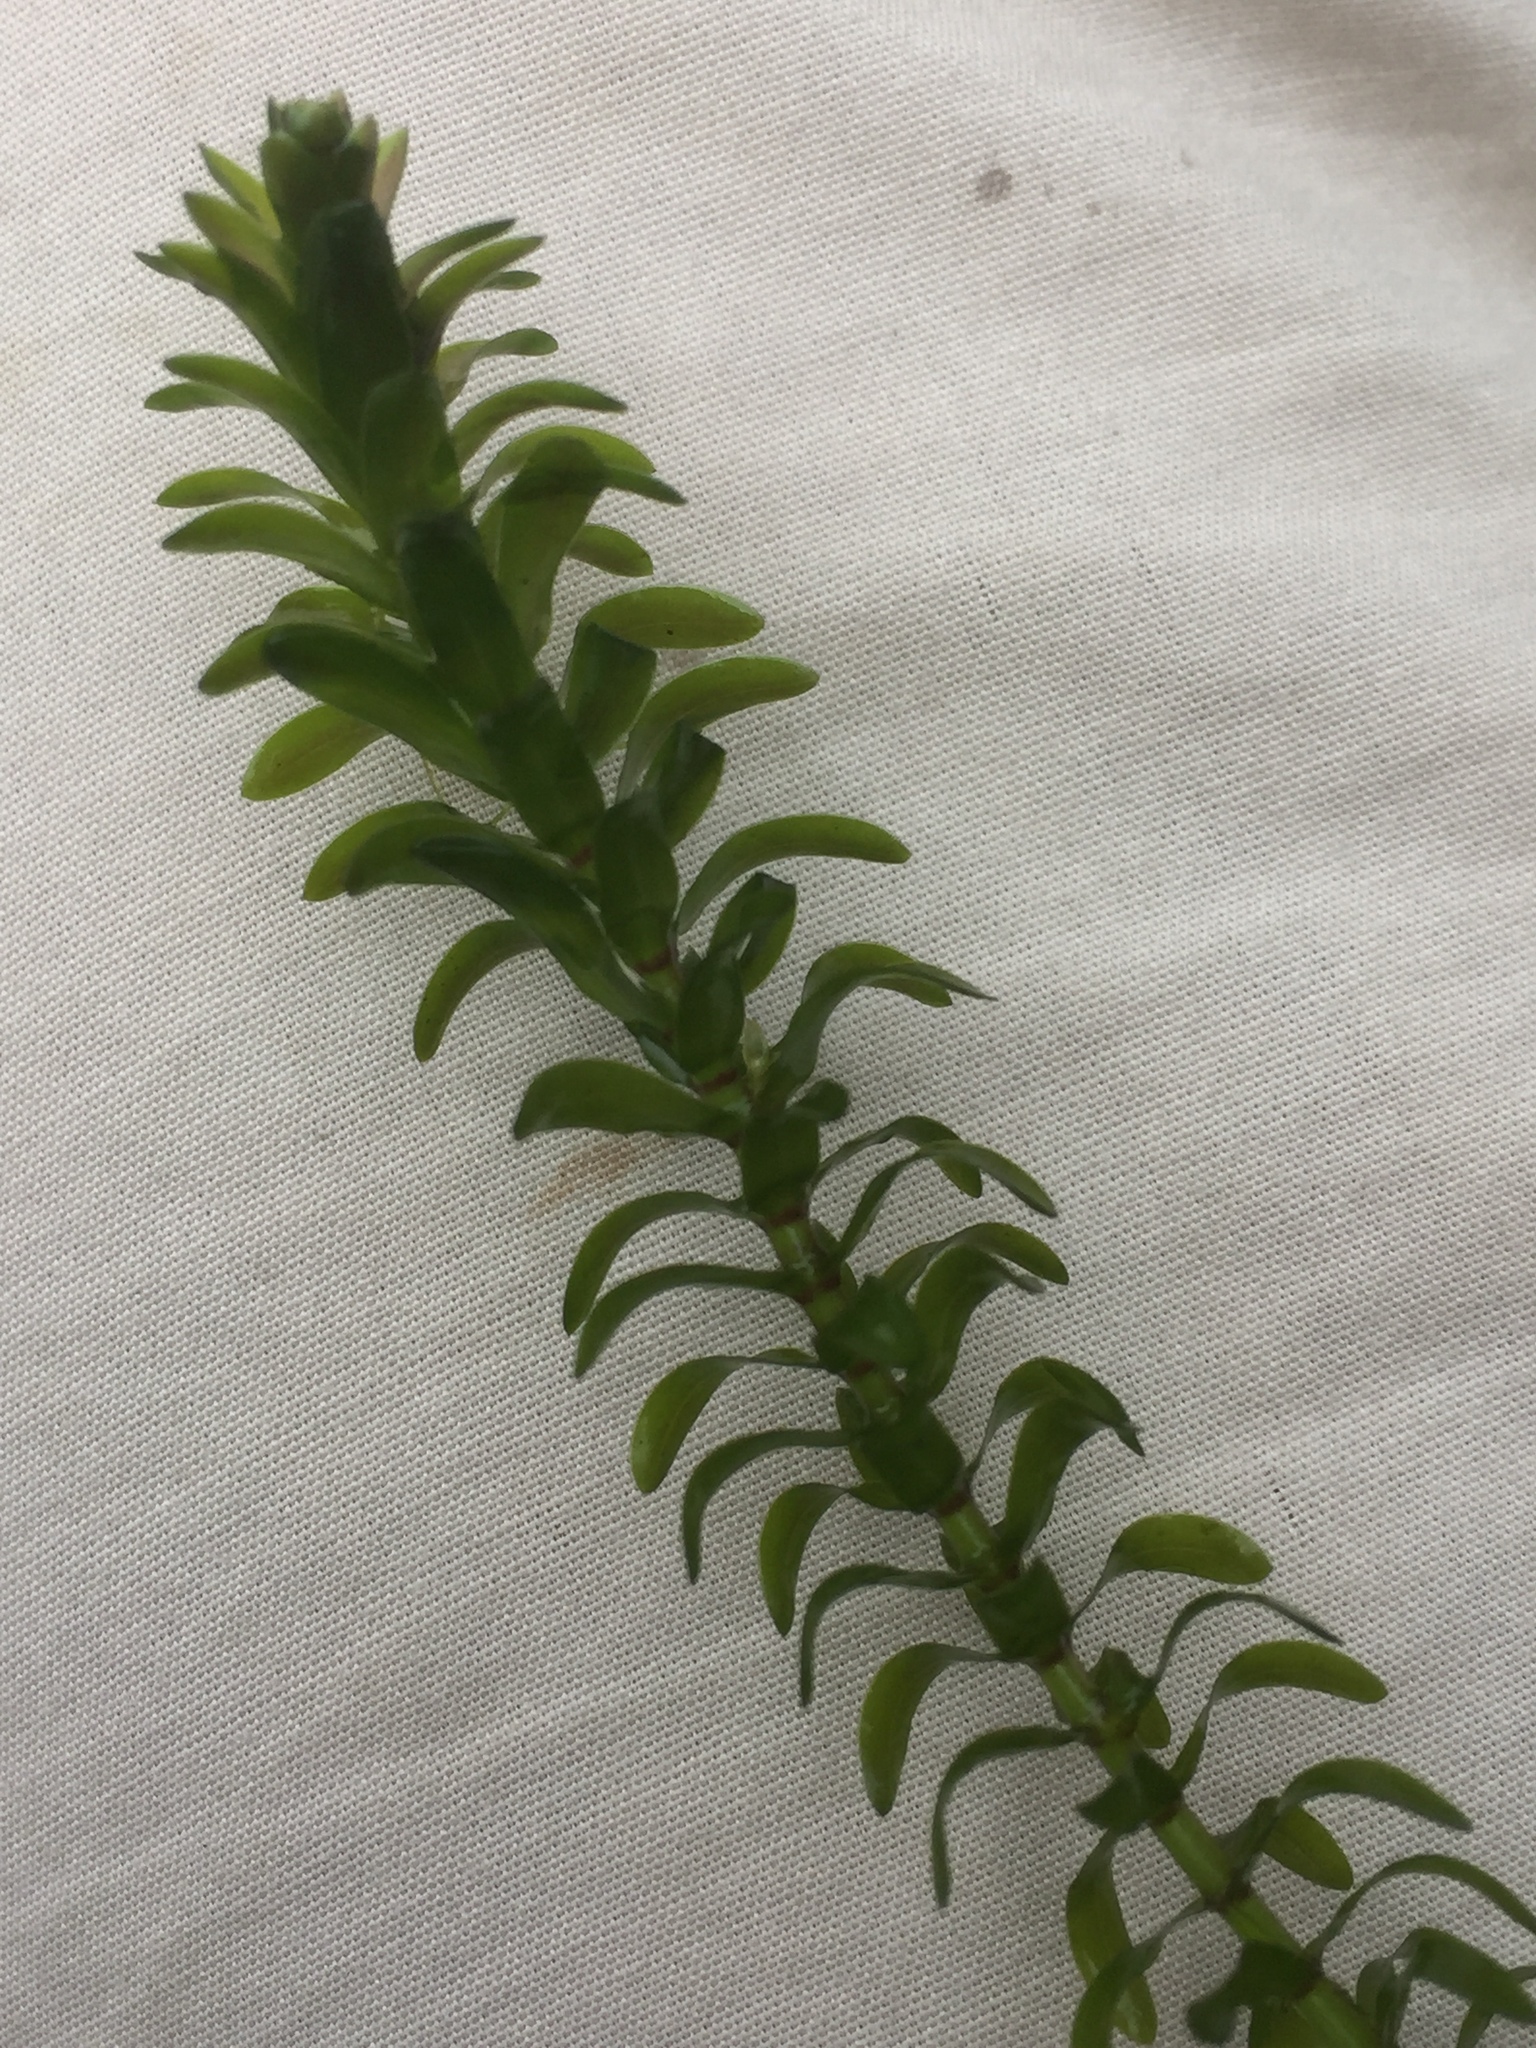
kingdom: Plantae
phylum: Tracheophyta
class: Liliopsida
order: Alismatales
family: Hydrocharitaceae
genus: Elodea
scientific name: Elodea canadensis
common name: Canadian waterweed
